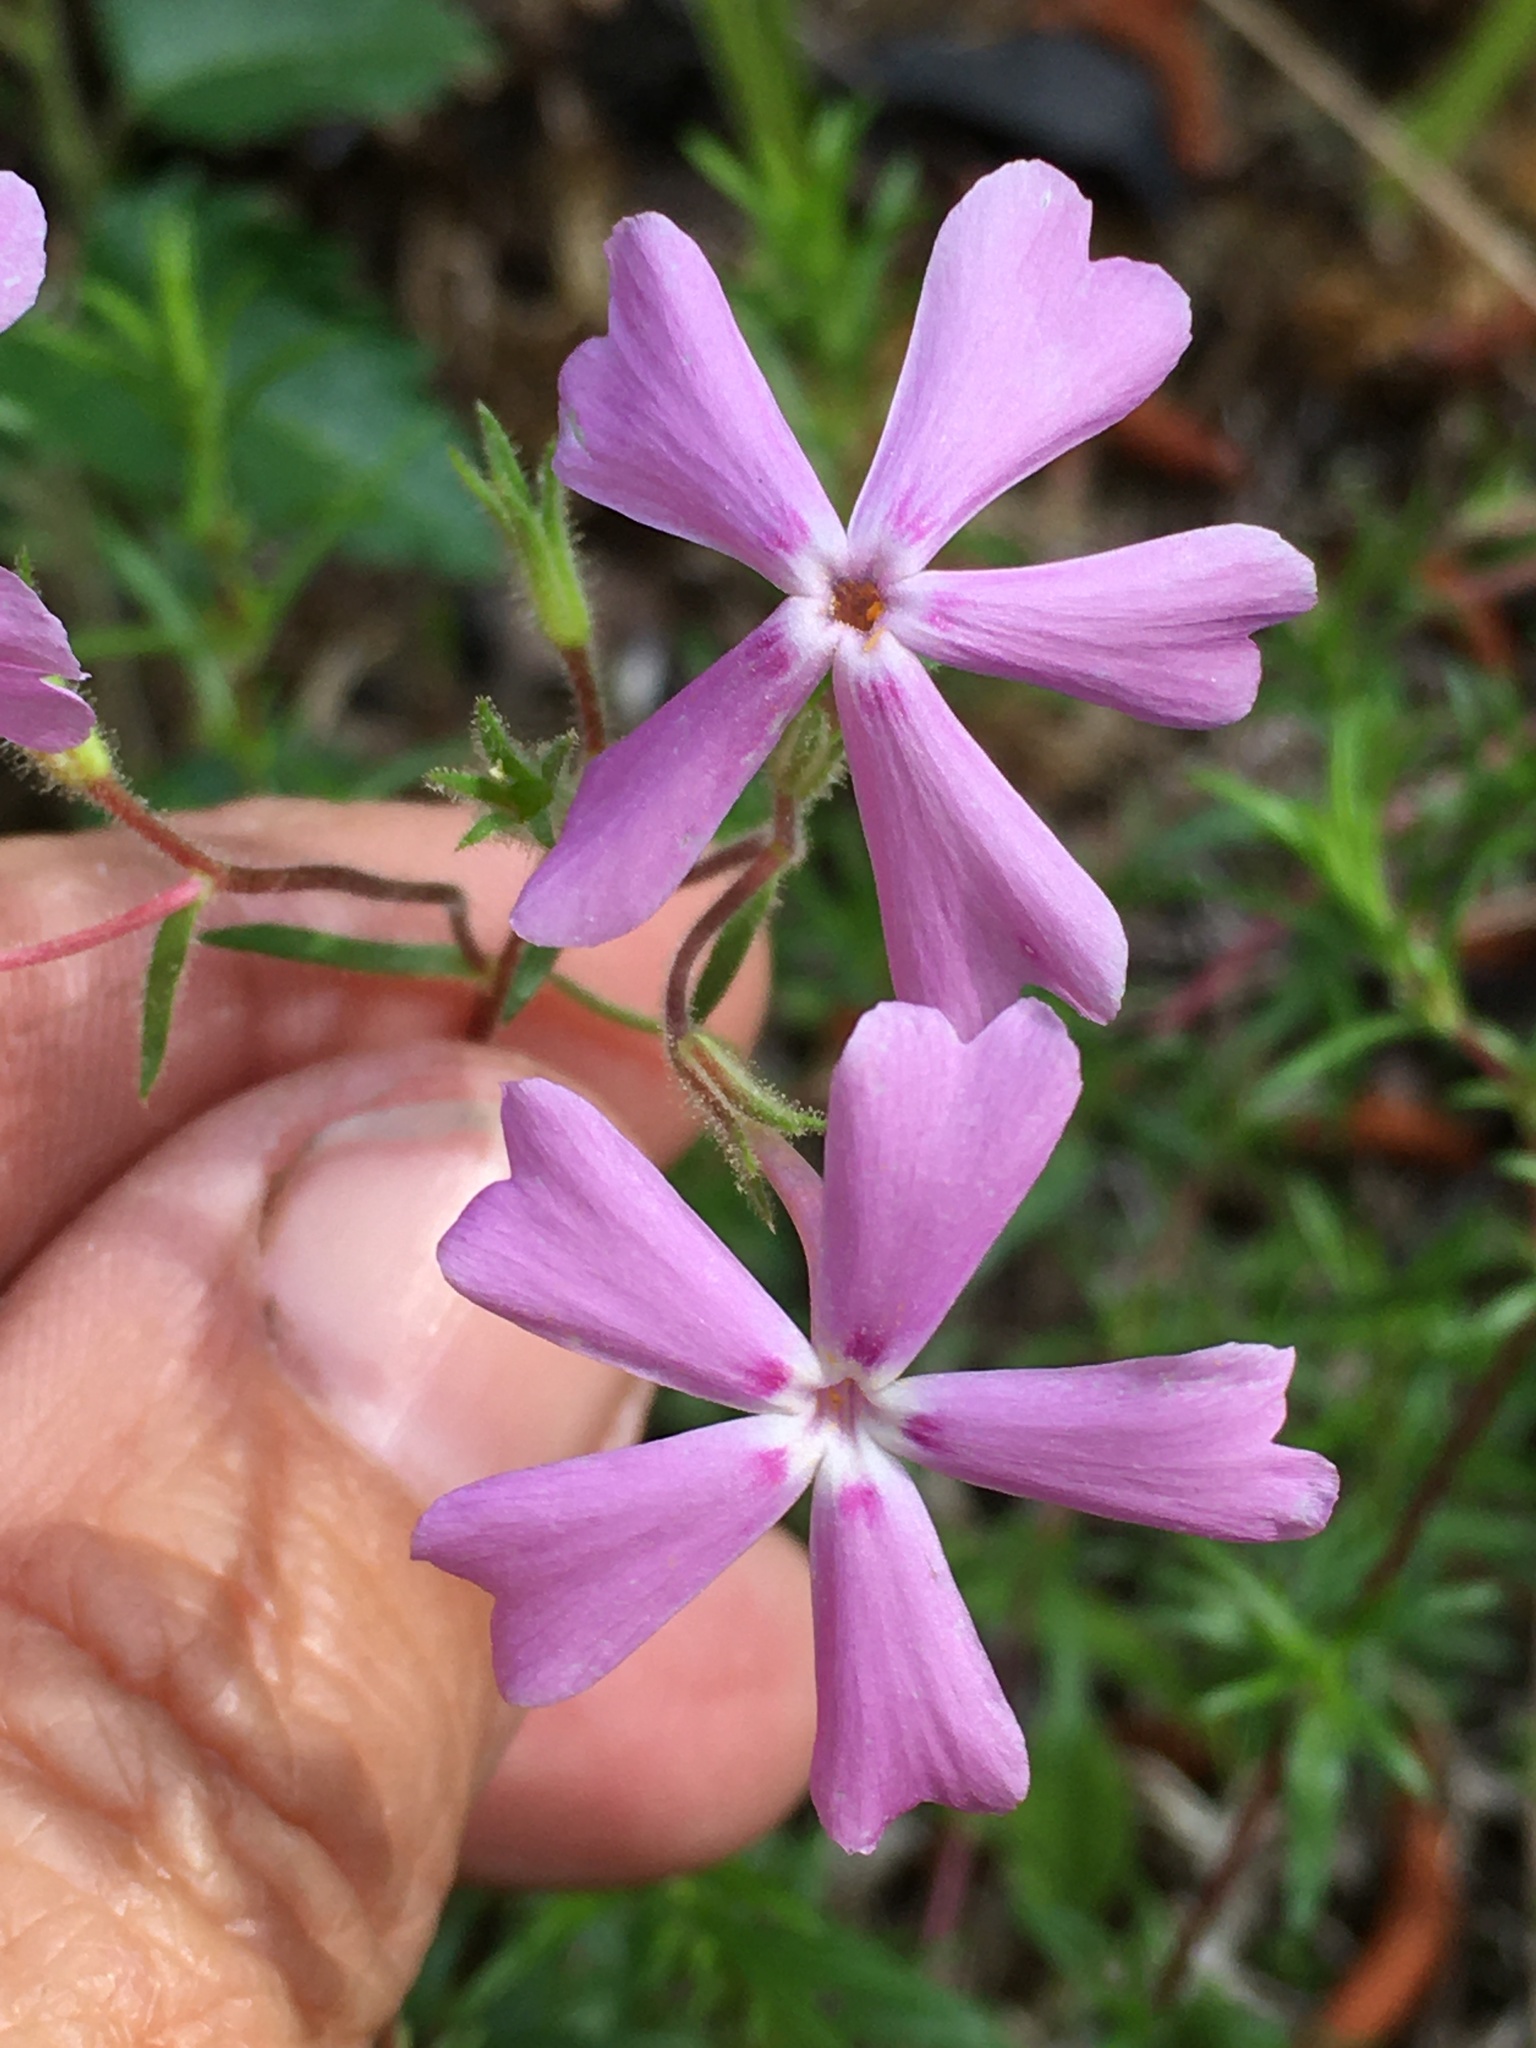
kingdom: Plantae
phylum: Tracheophyta
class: Magnoliopsida
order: Ericales
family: Polemoniaceae
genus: Phlox
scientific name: Phlox nivalis
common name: Trailing phlox
